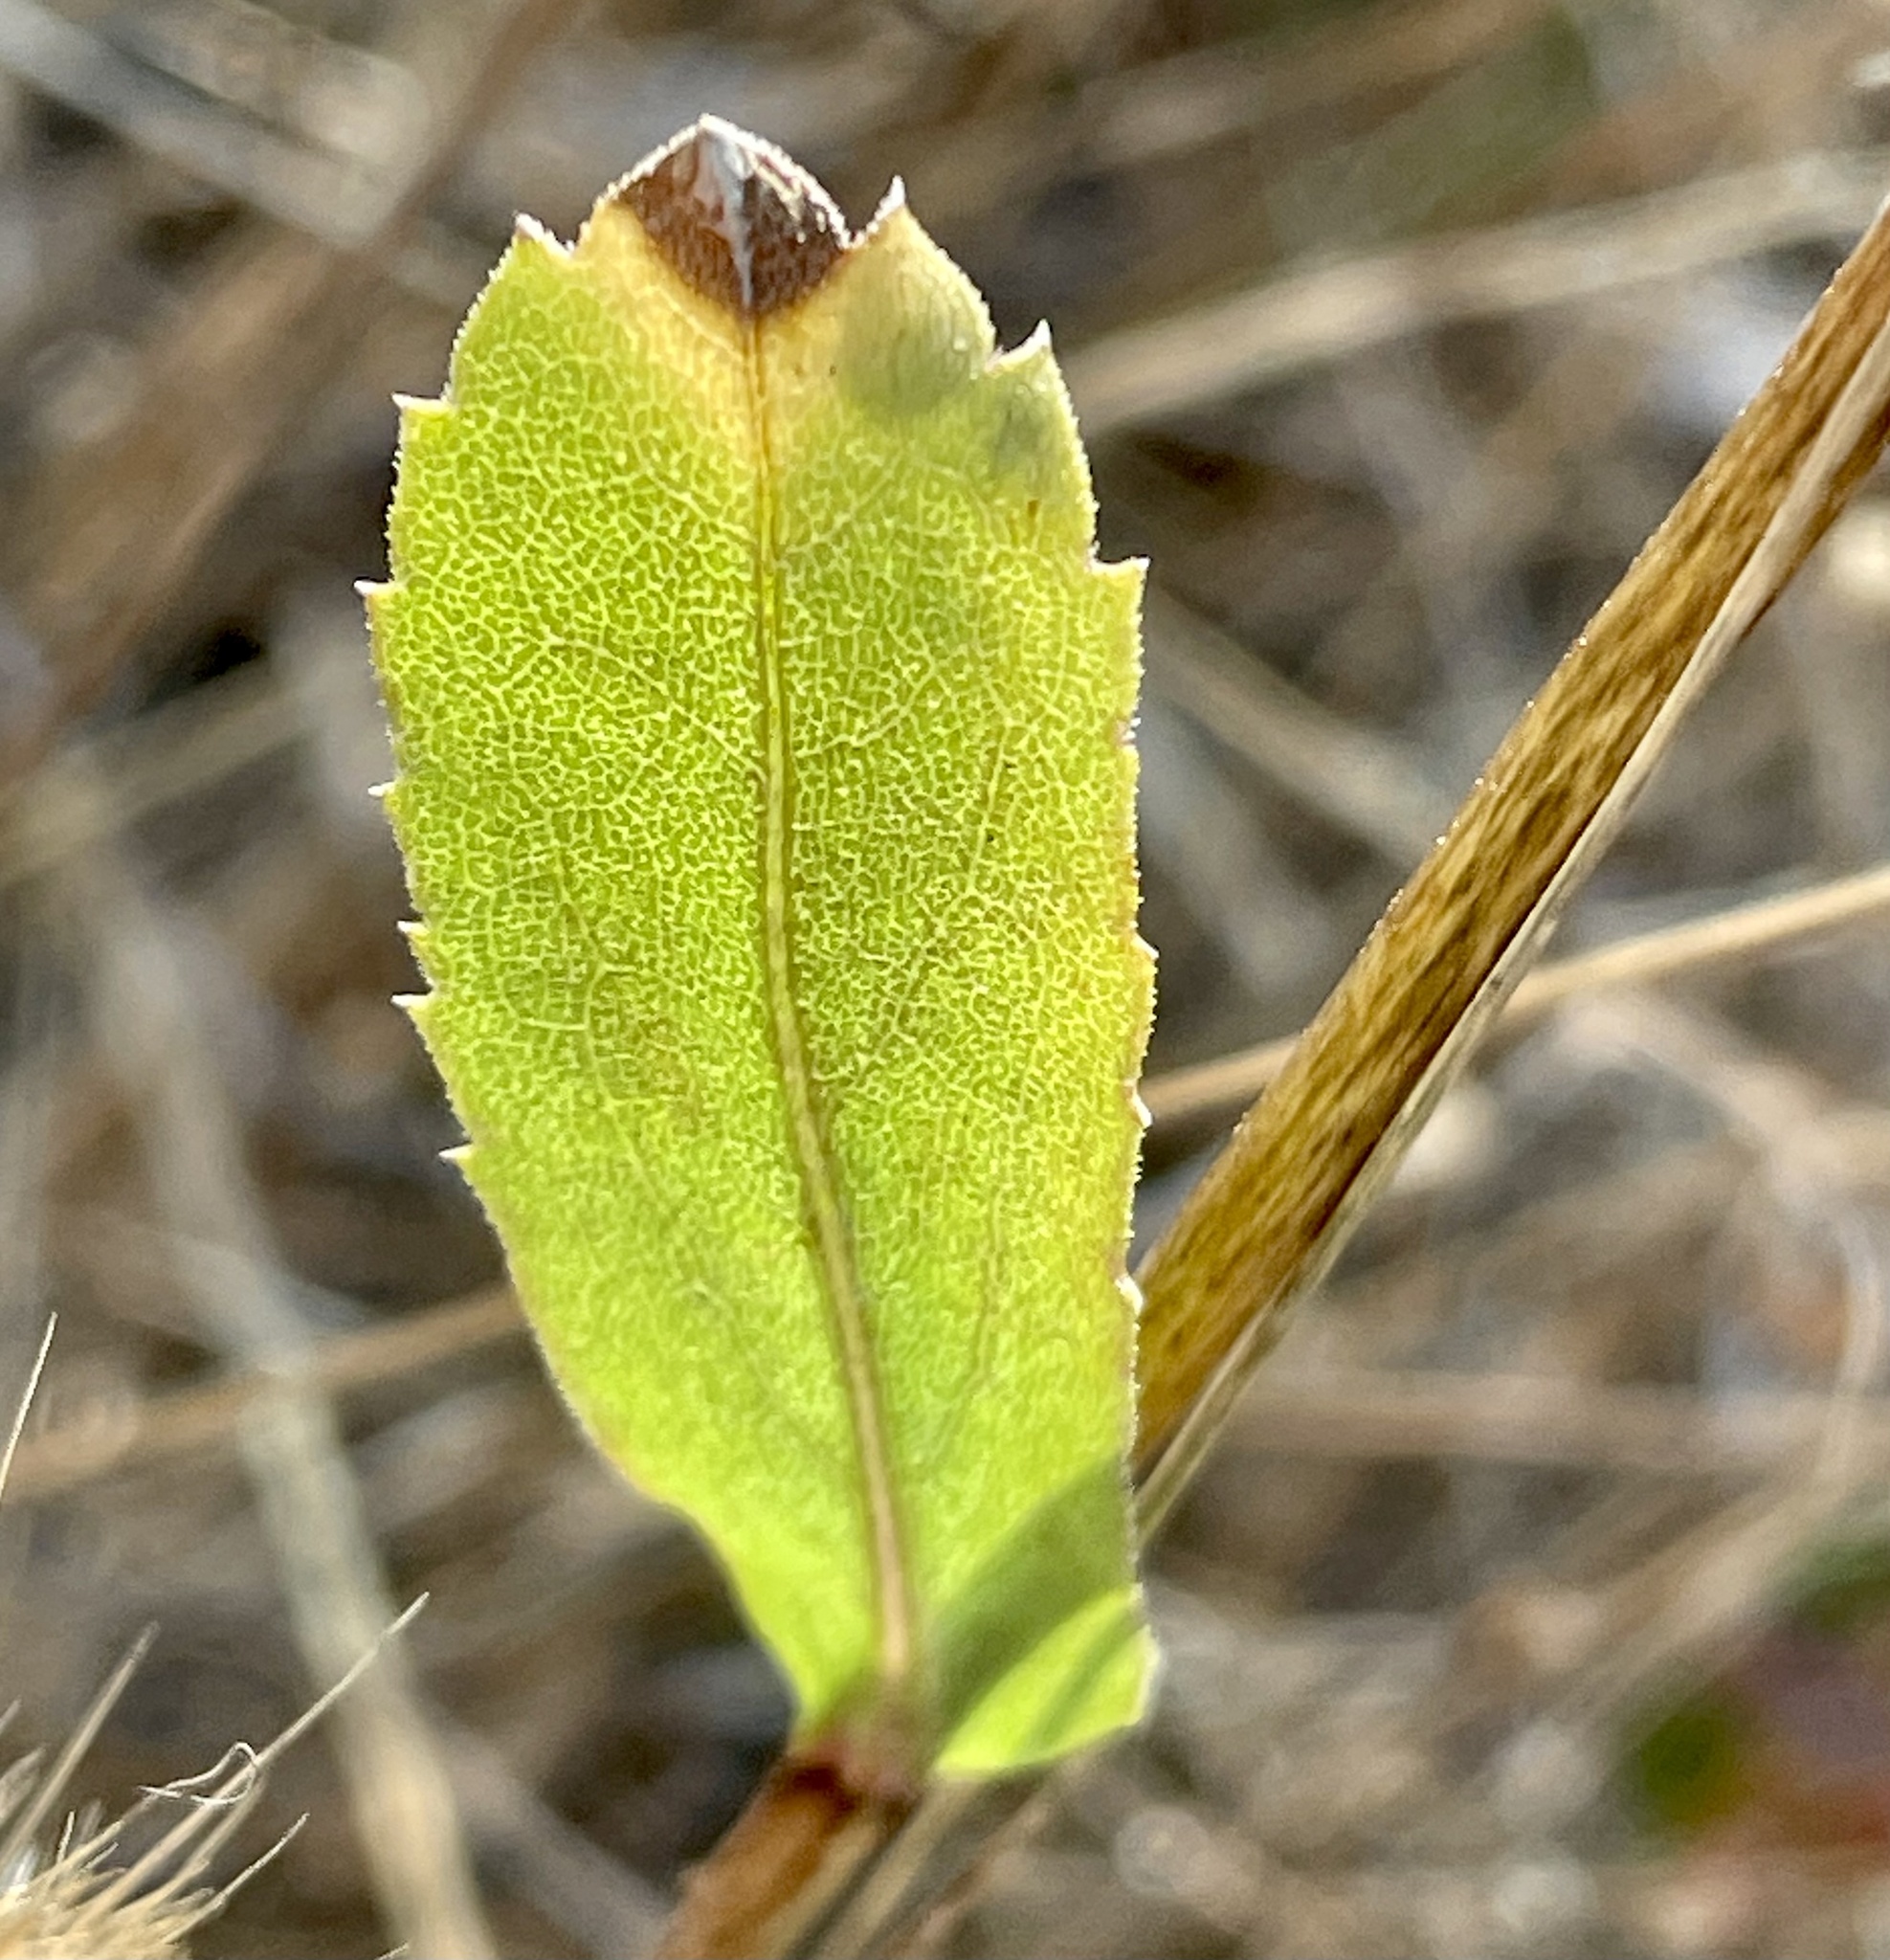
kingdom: Plantae
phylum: Tracheophyta
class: Magnoliopsida
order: Asterales
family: Asteraceae
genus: Grindelia
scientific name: Grindelia hirsutula
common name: Hairy gumweed
